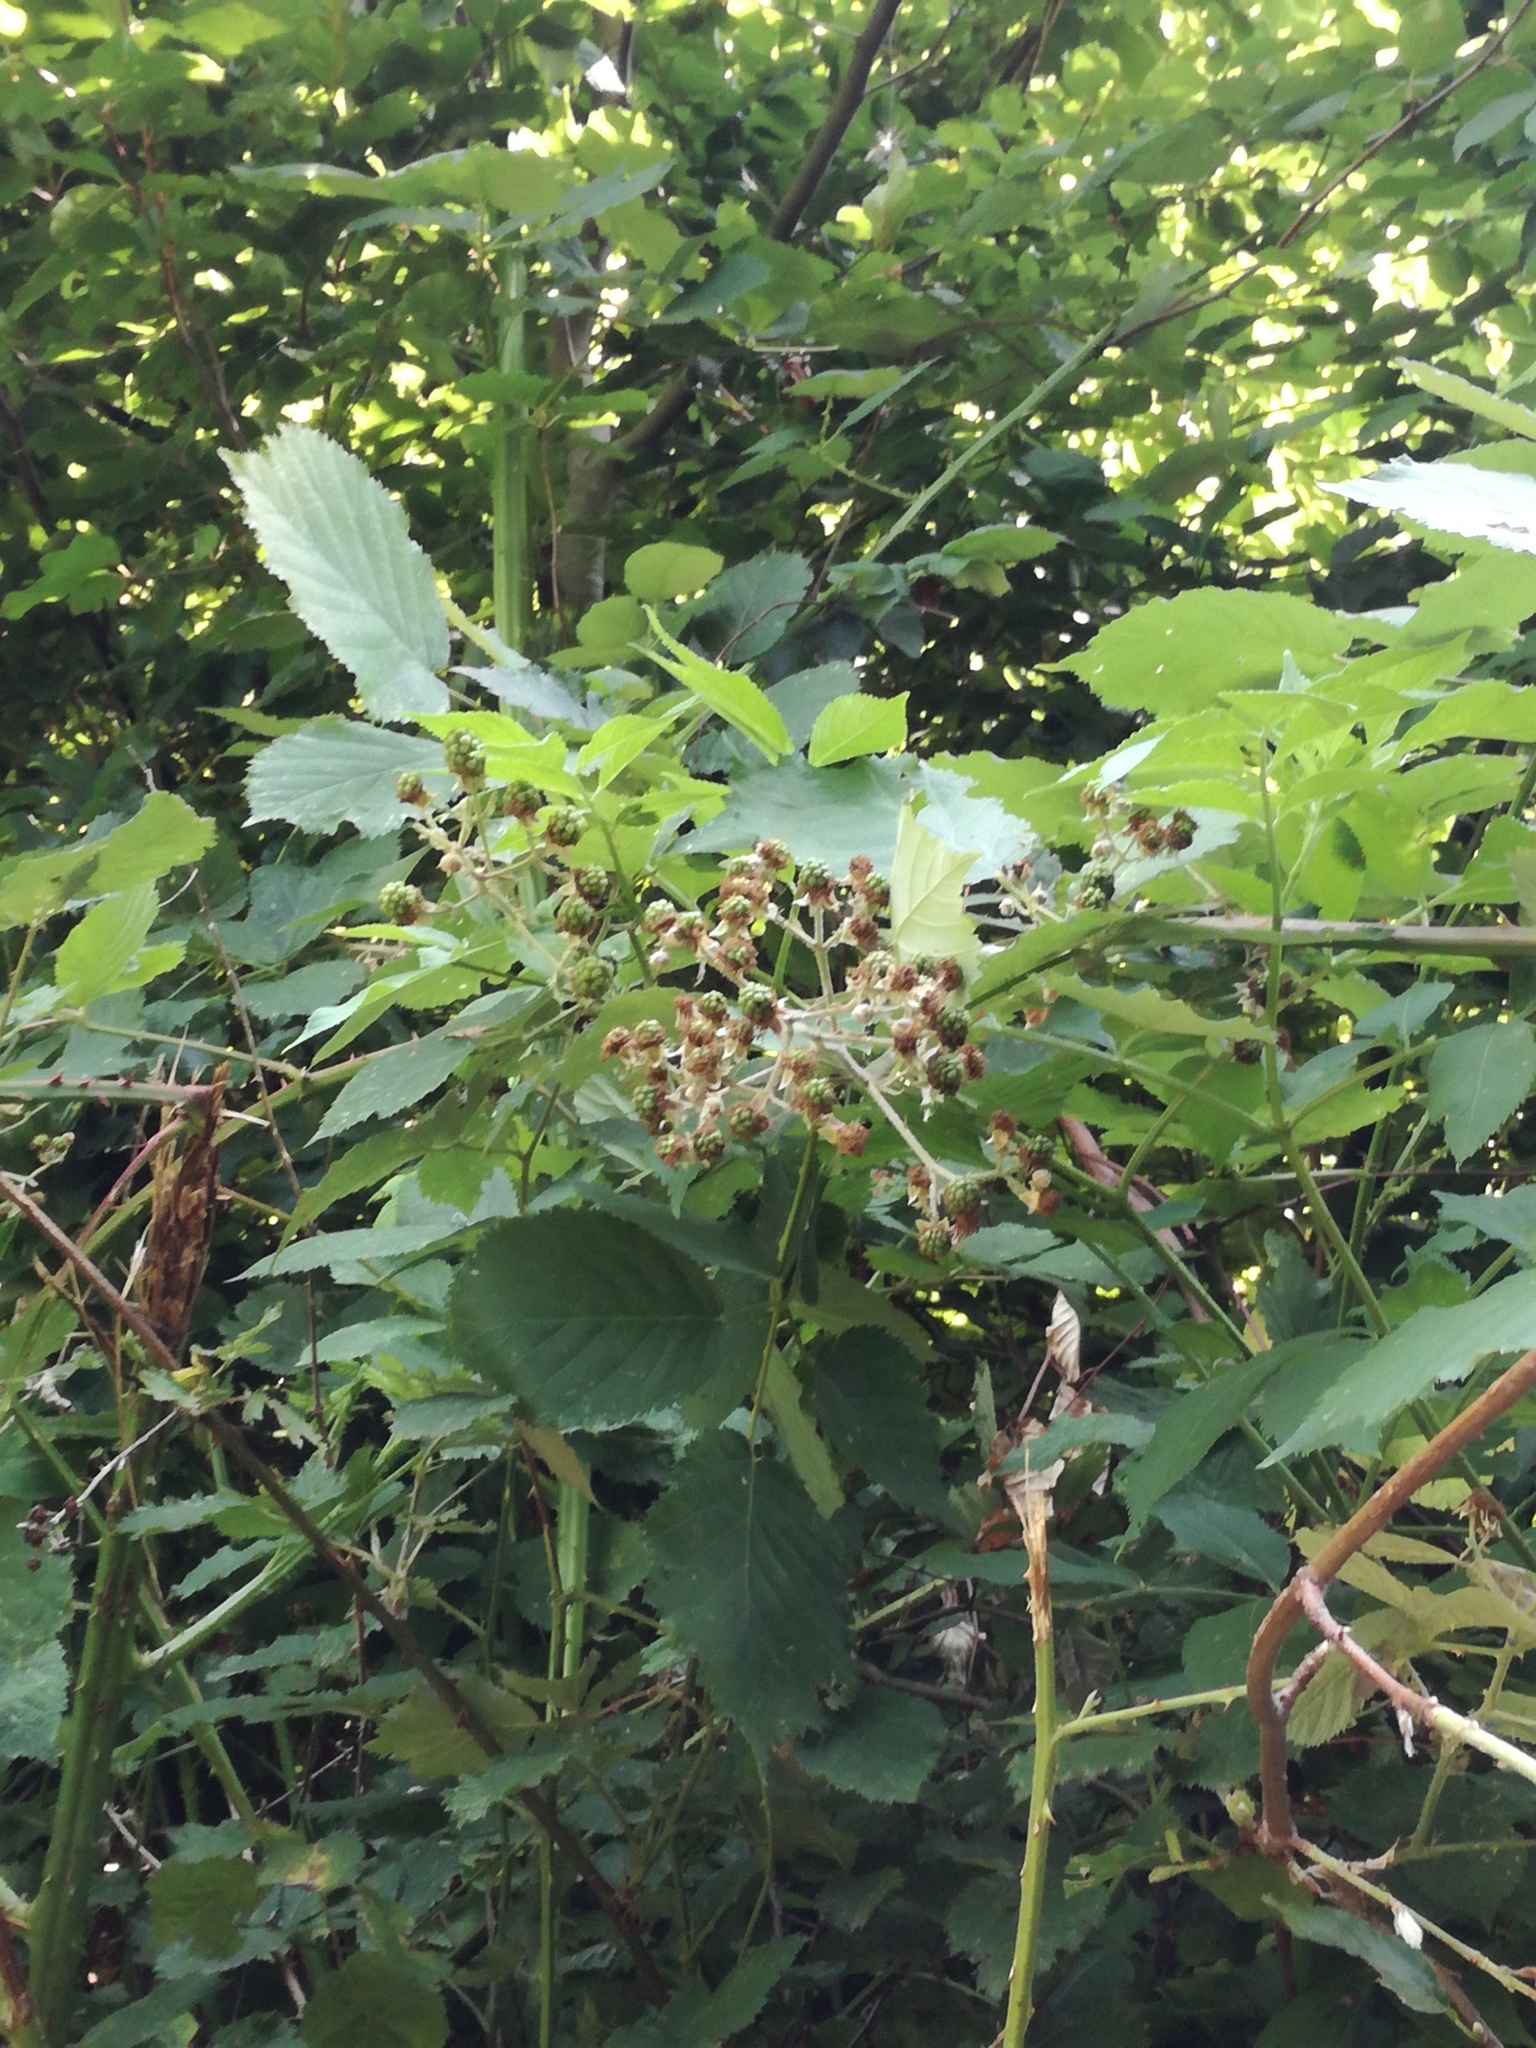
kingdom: Plantae
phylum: Tracheophyta
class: Magnoliopsida
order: Rosales
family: Rosaceae
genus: Rubus
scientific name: Rubus
